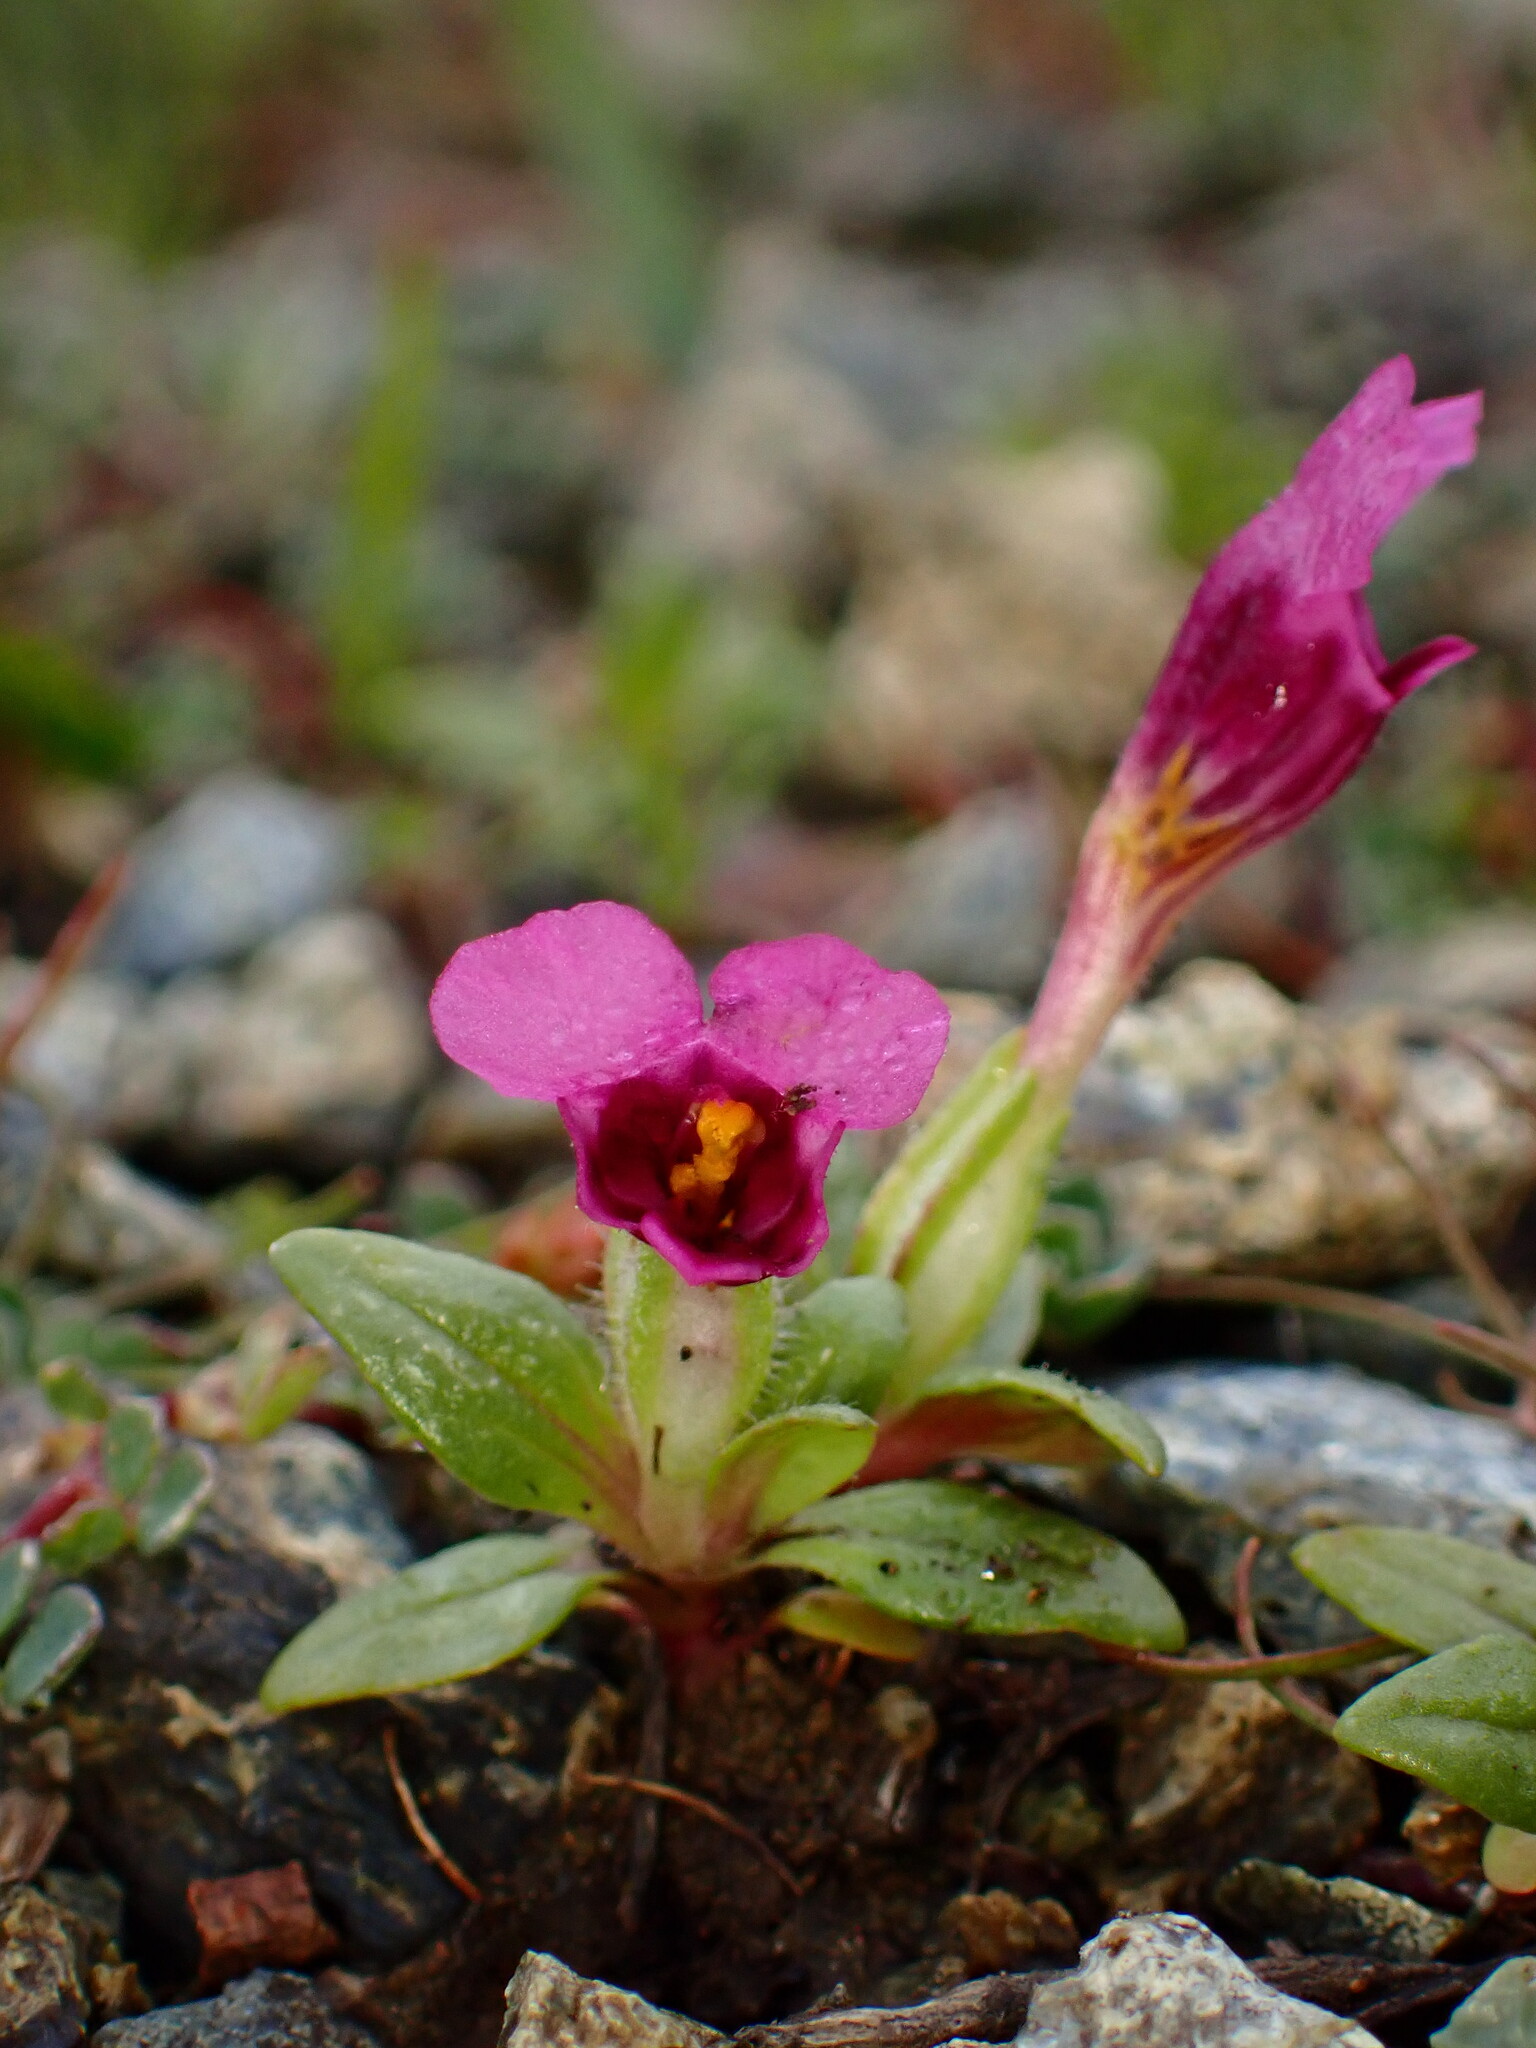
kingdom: Plantae
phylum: Tracheophyta
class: Magnoliopsida
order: Lamiales
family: Phrymaceae
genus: Diplacus
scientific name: Diplacus douglasii
